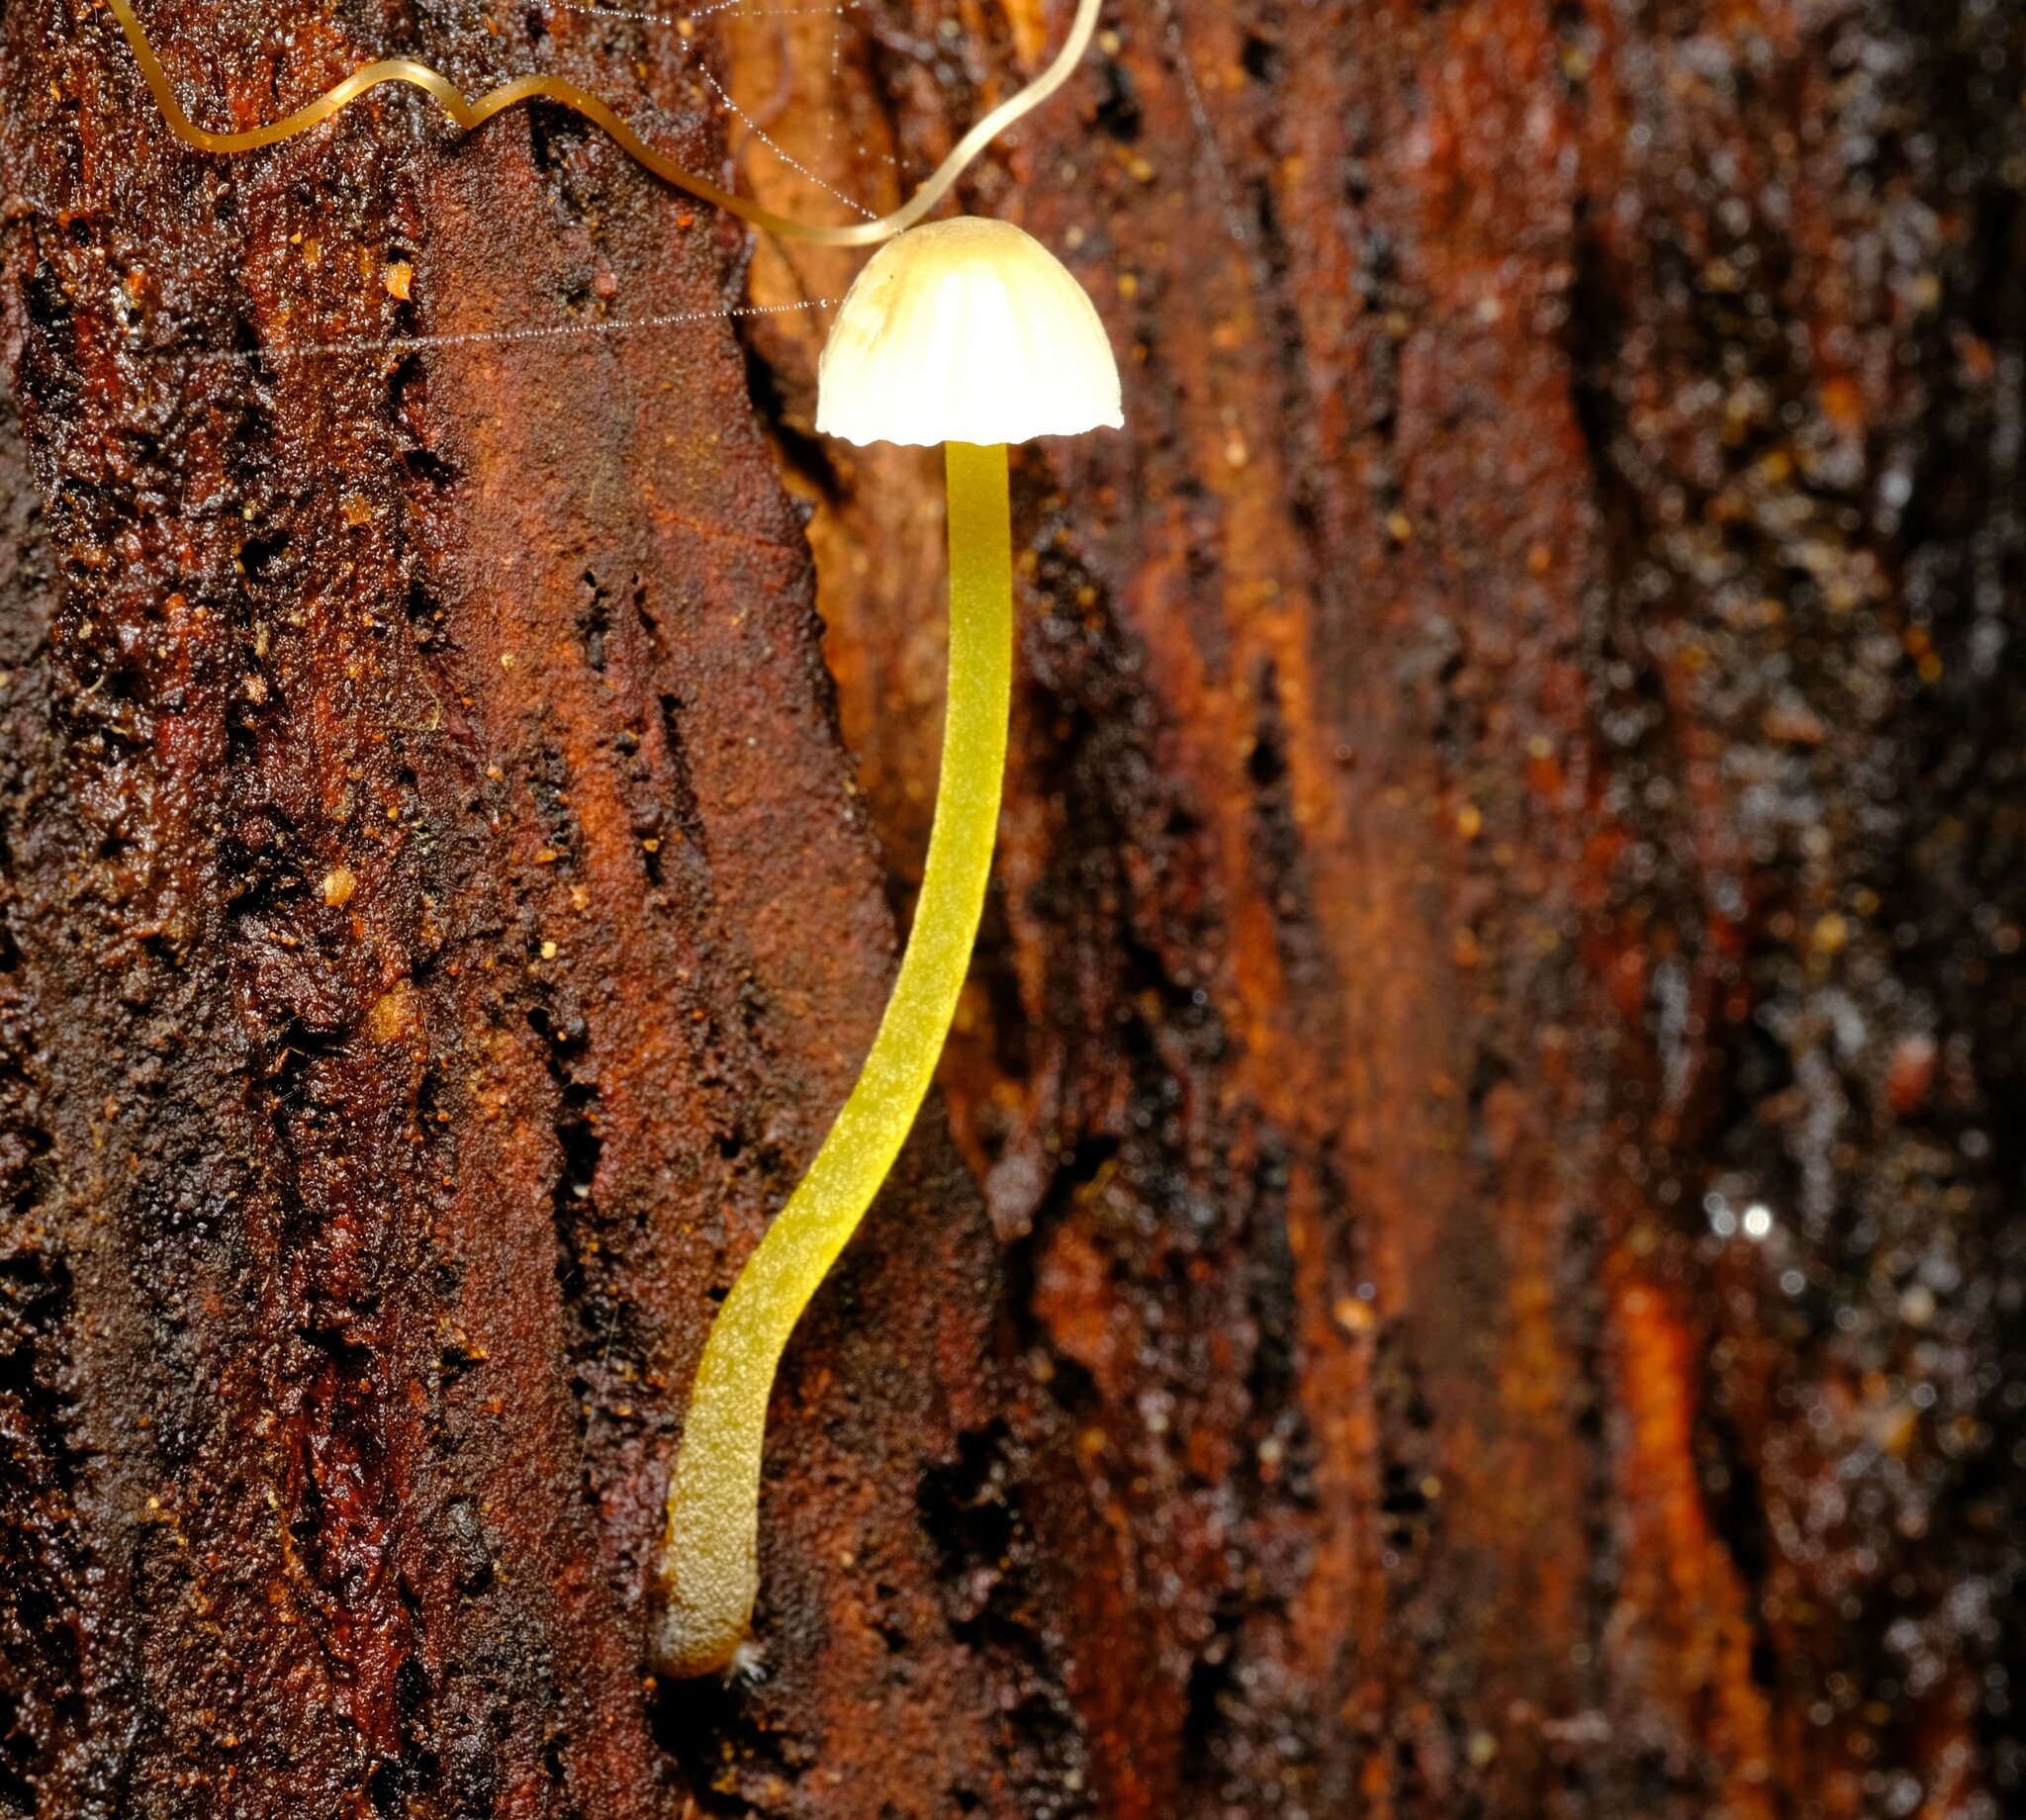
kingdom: Fungi
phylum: Basidiomycota
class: Agaricomycetes
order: Agaricales
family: Mycenaceae
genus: Mycena
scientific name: Mycena epipterygia
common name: Yellowleg bonnet
